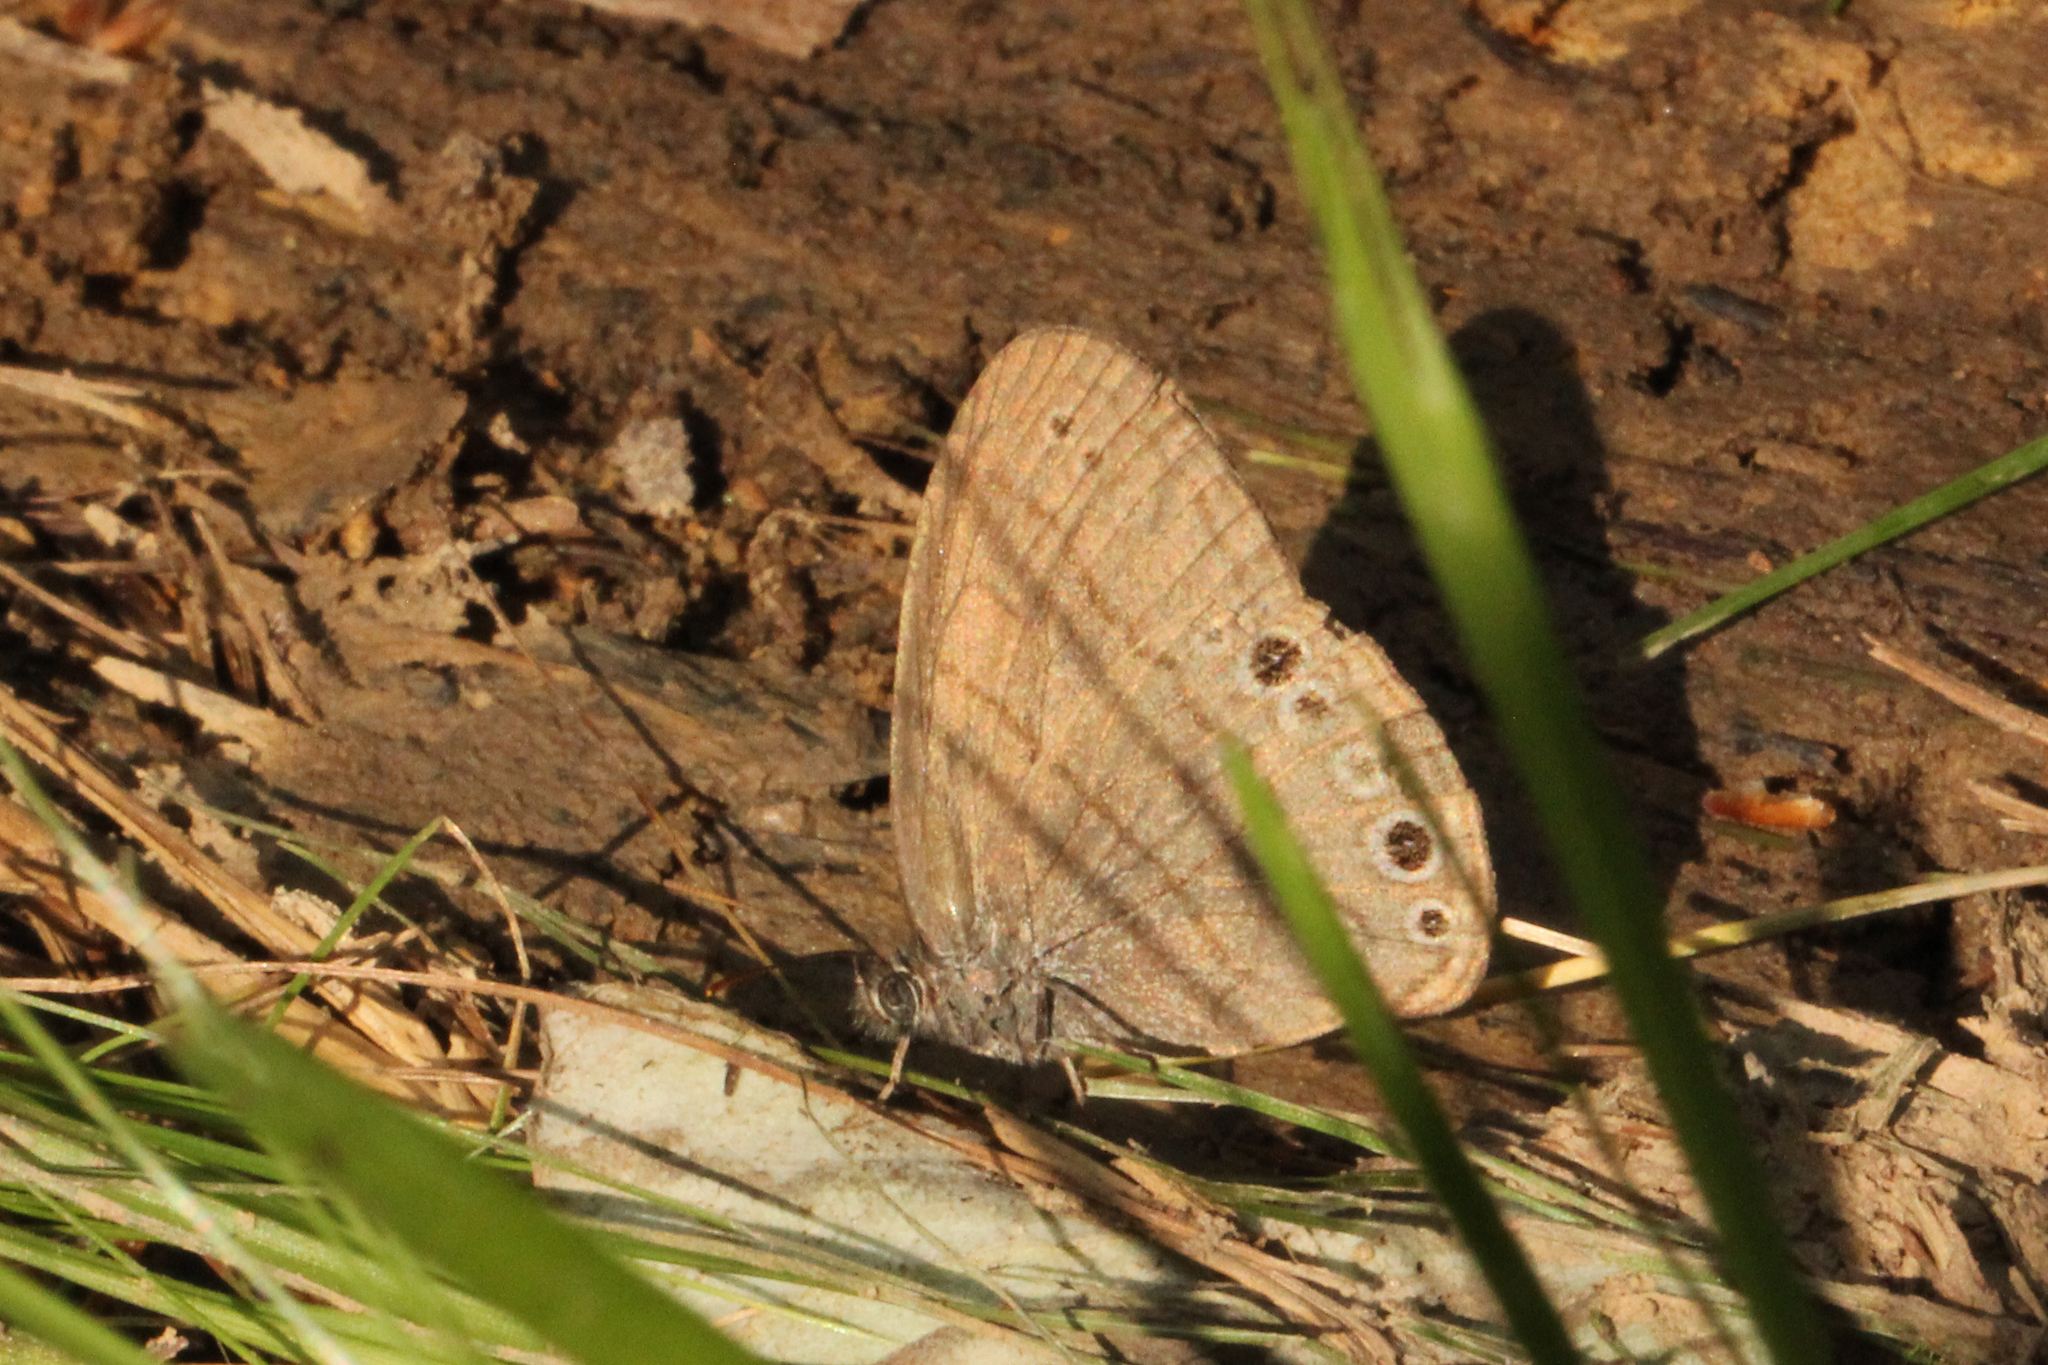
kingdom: Animalia
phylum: Arthropoda
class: Insecta
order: Lepidoptera
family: Nymphalidae
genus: Hermeuptychia
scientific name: Hermeuptychia hermes
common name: Hermes satyr
